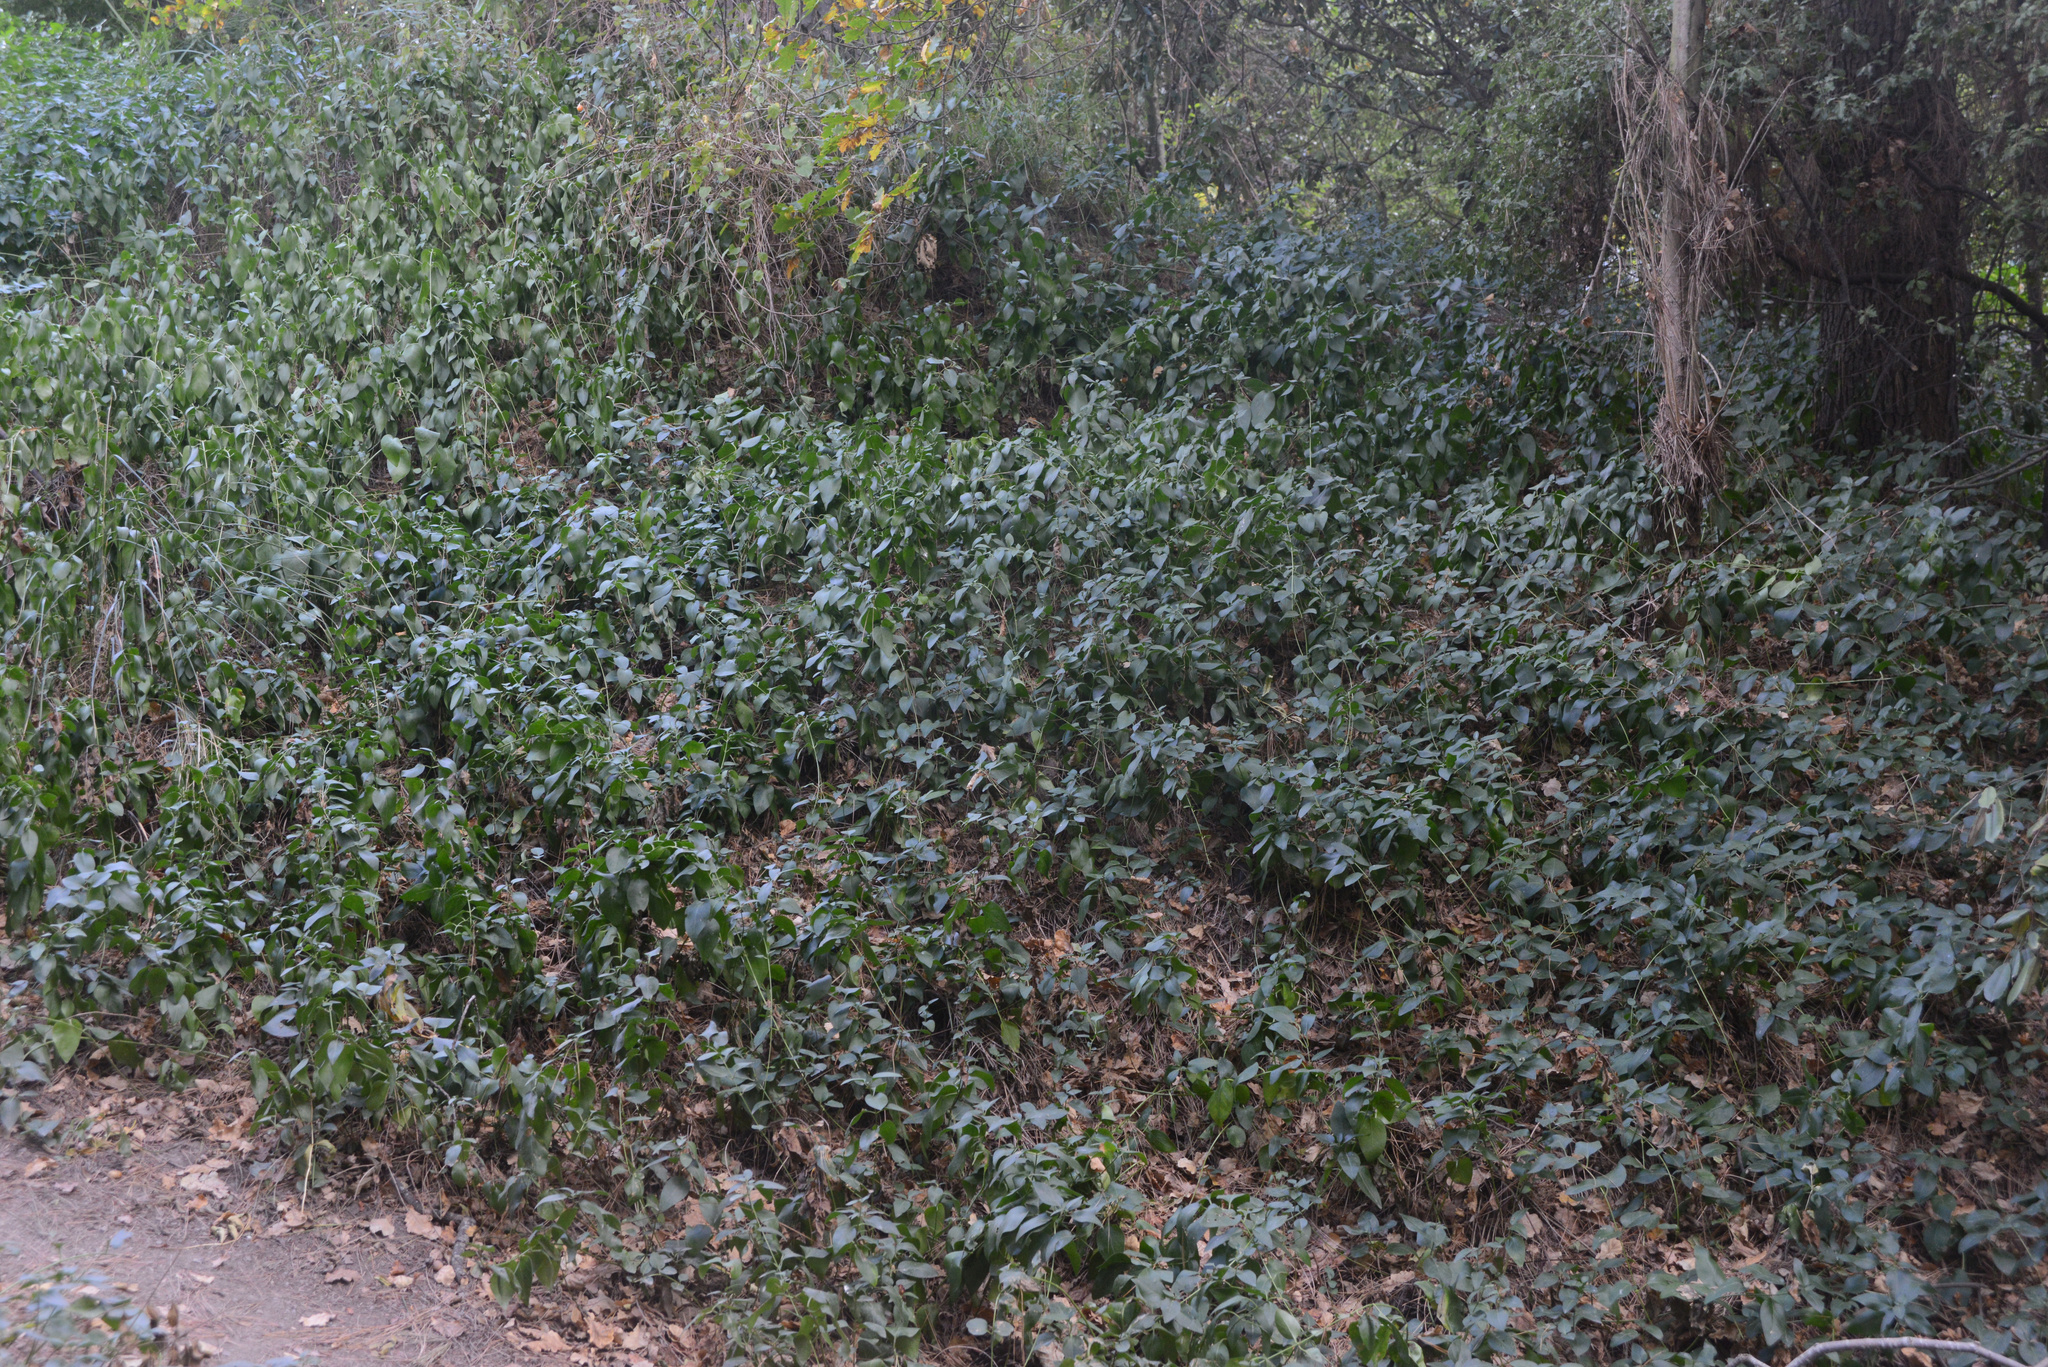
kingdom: Plantae
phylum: Tracheophyta
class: Magnoliopsida
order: Gentianales
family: Apocynaceae
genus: Vinca
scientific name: Vinca major
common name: Greater periwinkle
